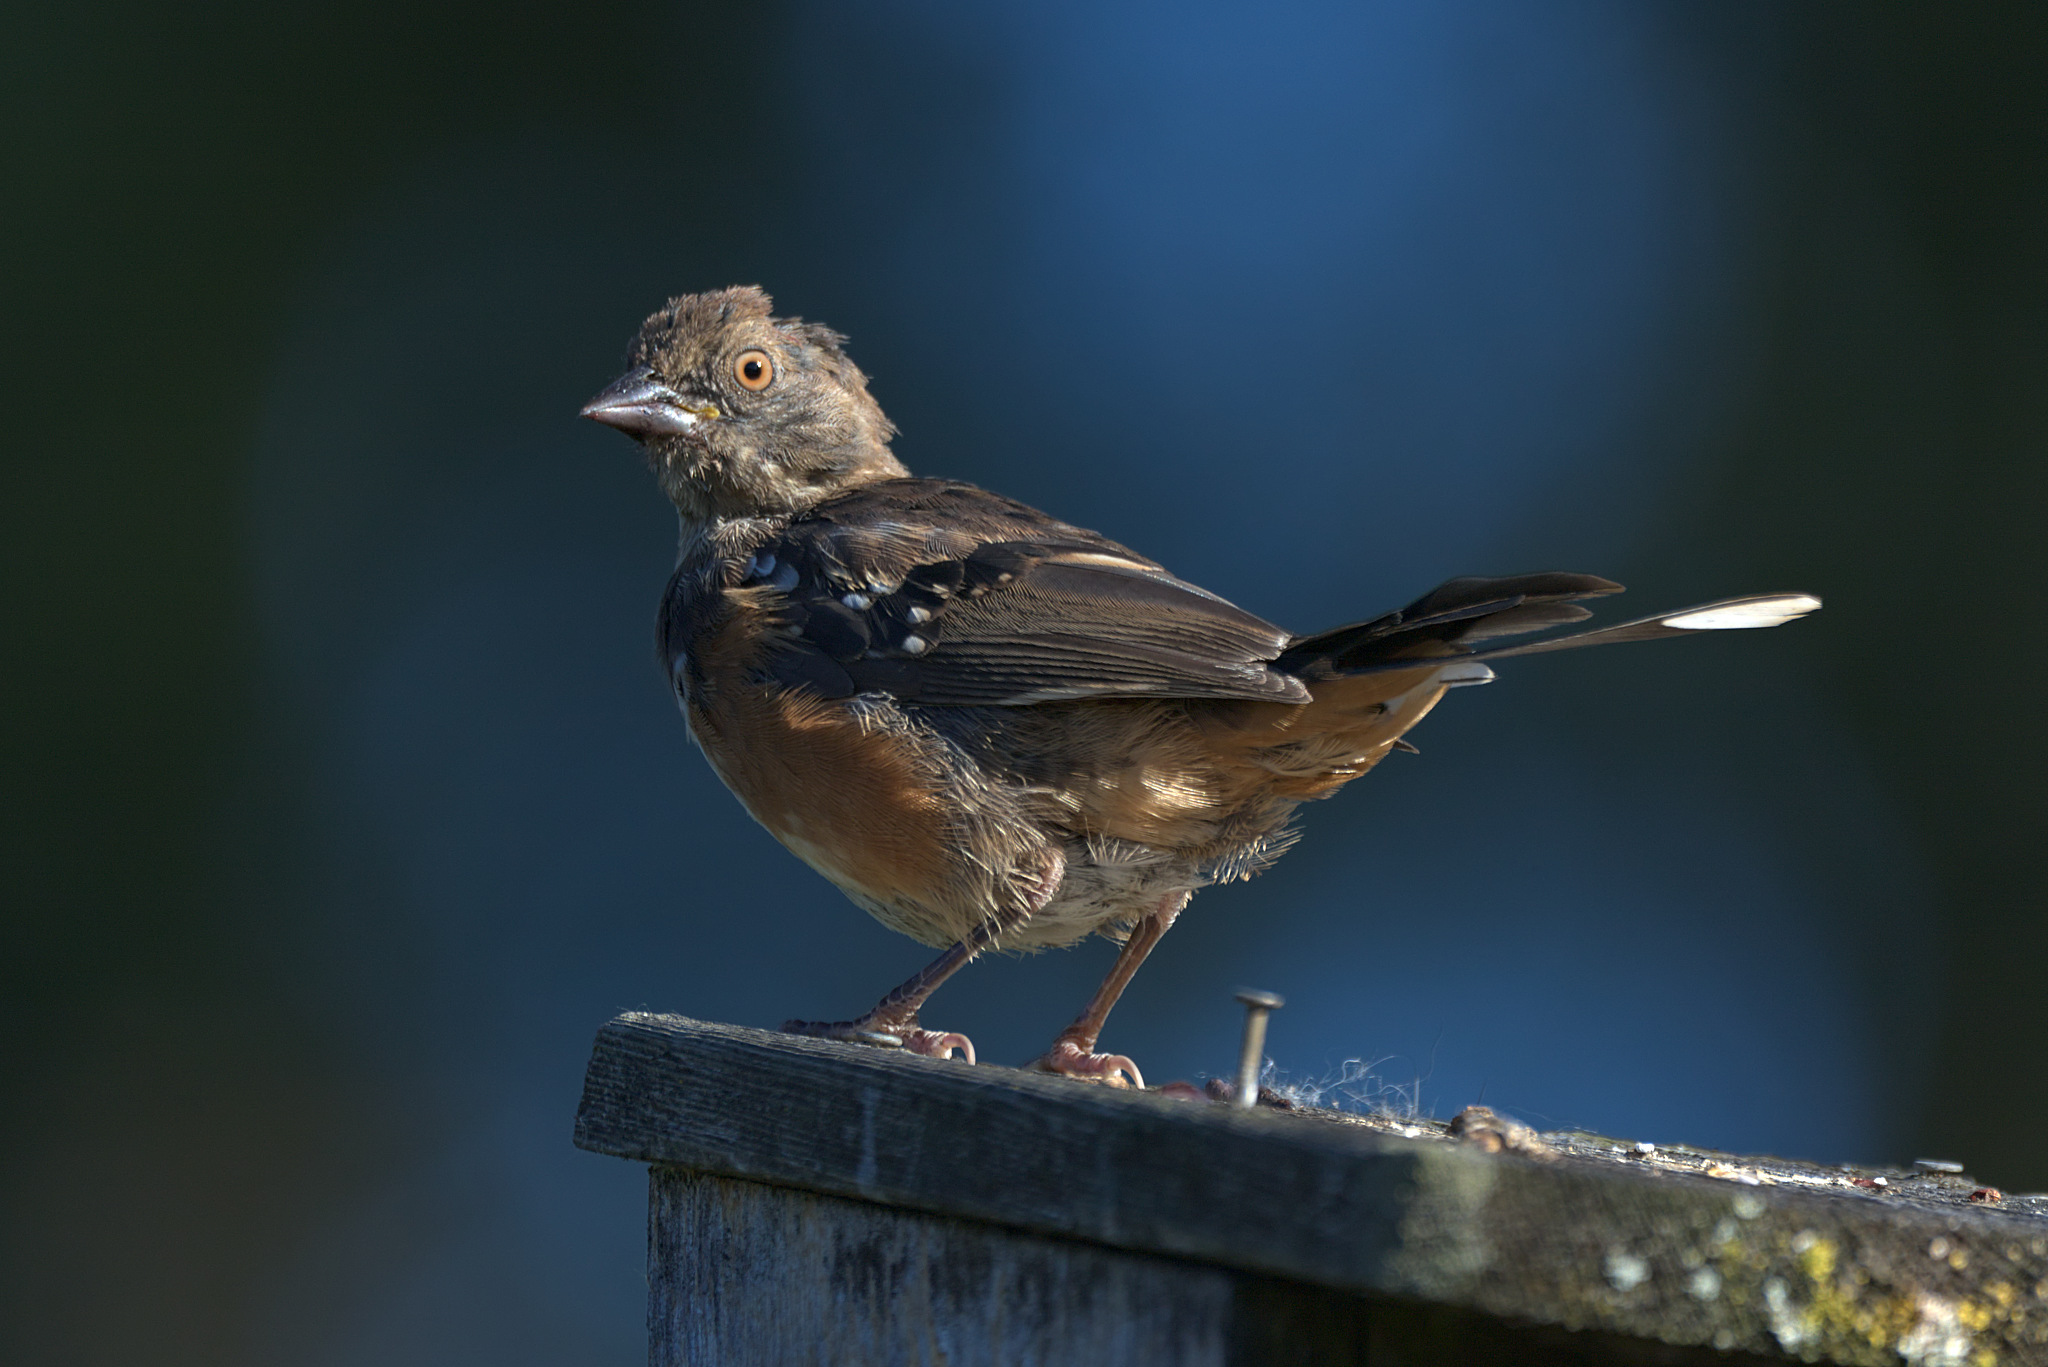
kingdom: Animalia
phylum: Chordata
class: Aves
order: Passeriformes
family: Passerellidae
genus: Pipilo
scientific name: Pipilo maculatus
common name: Spotted towhee
